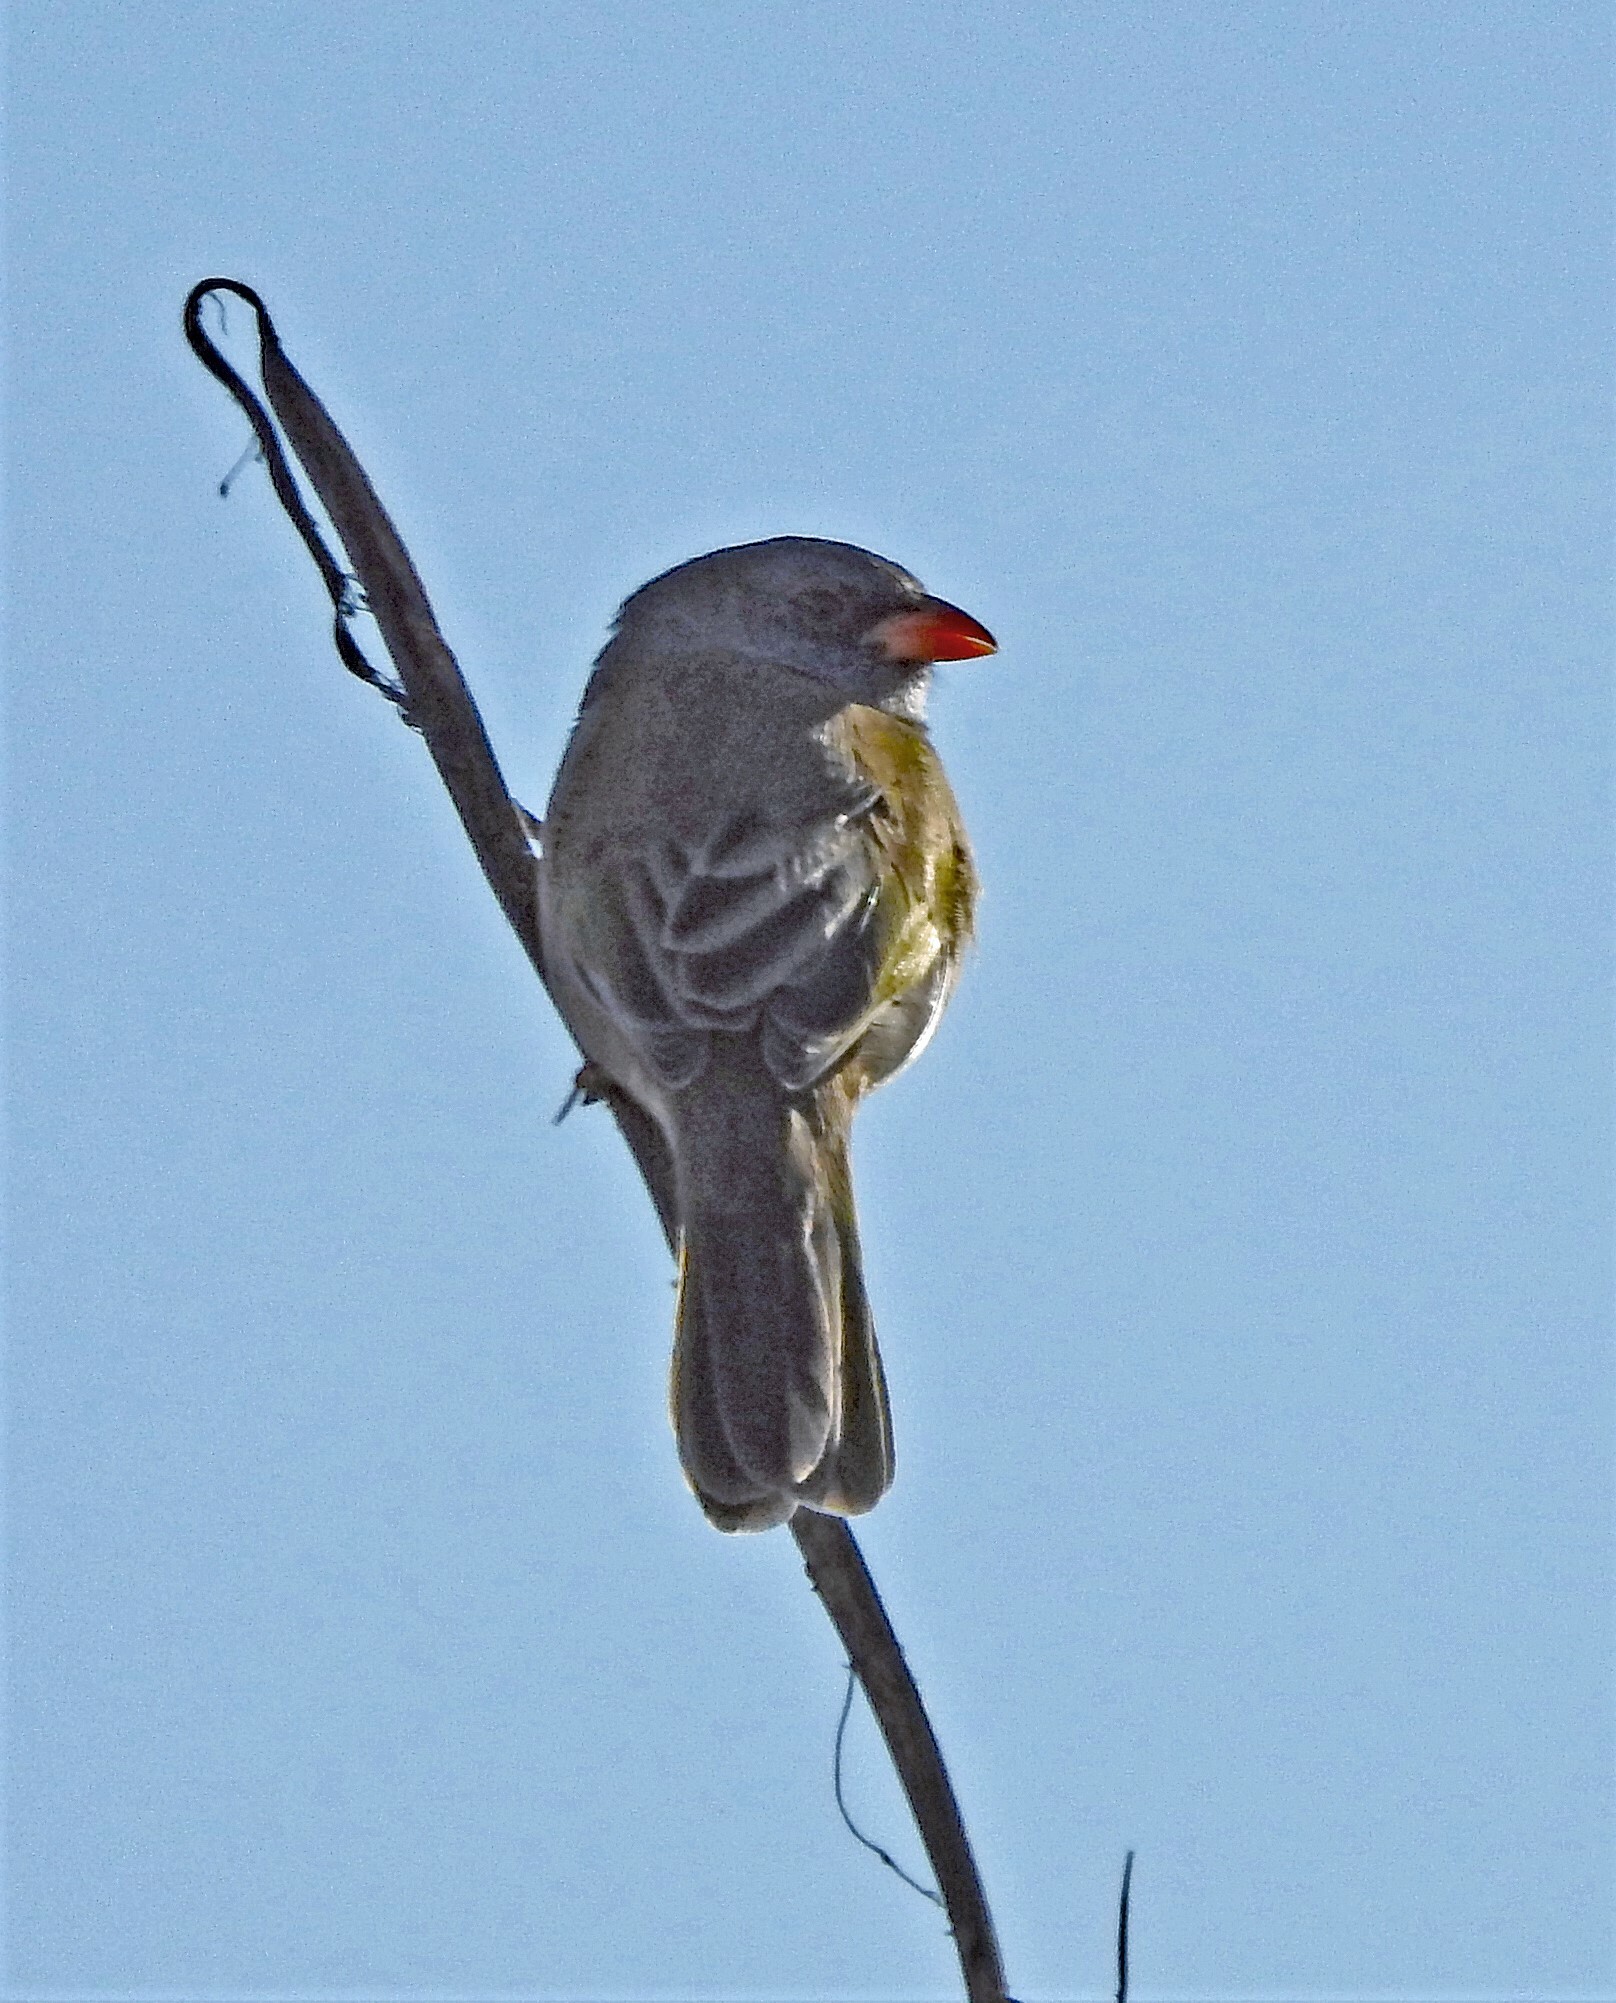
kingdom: Animalia
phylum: Chordata
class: Aves
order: Passeriformes
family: Thraupidae
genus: Embernagra
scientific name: Embernagra platensis
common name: Pampa finch
